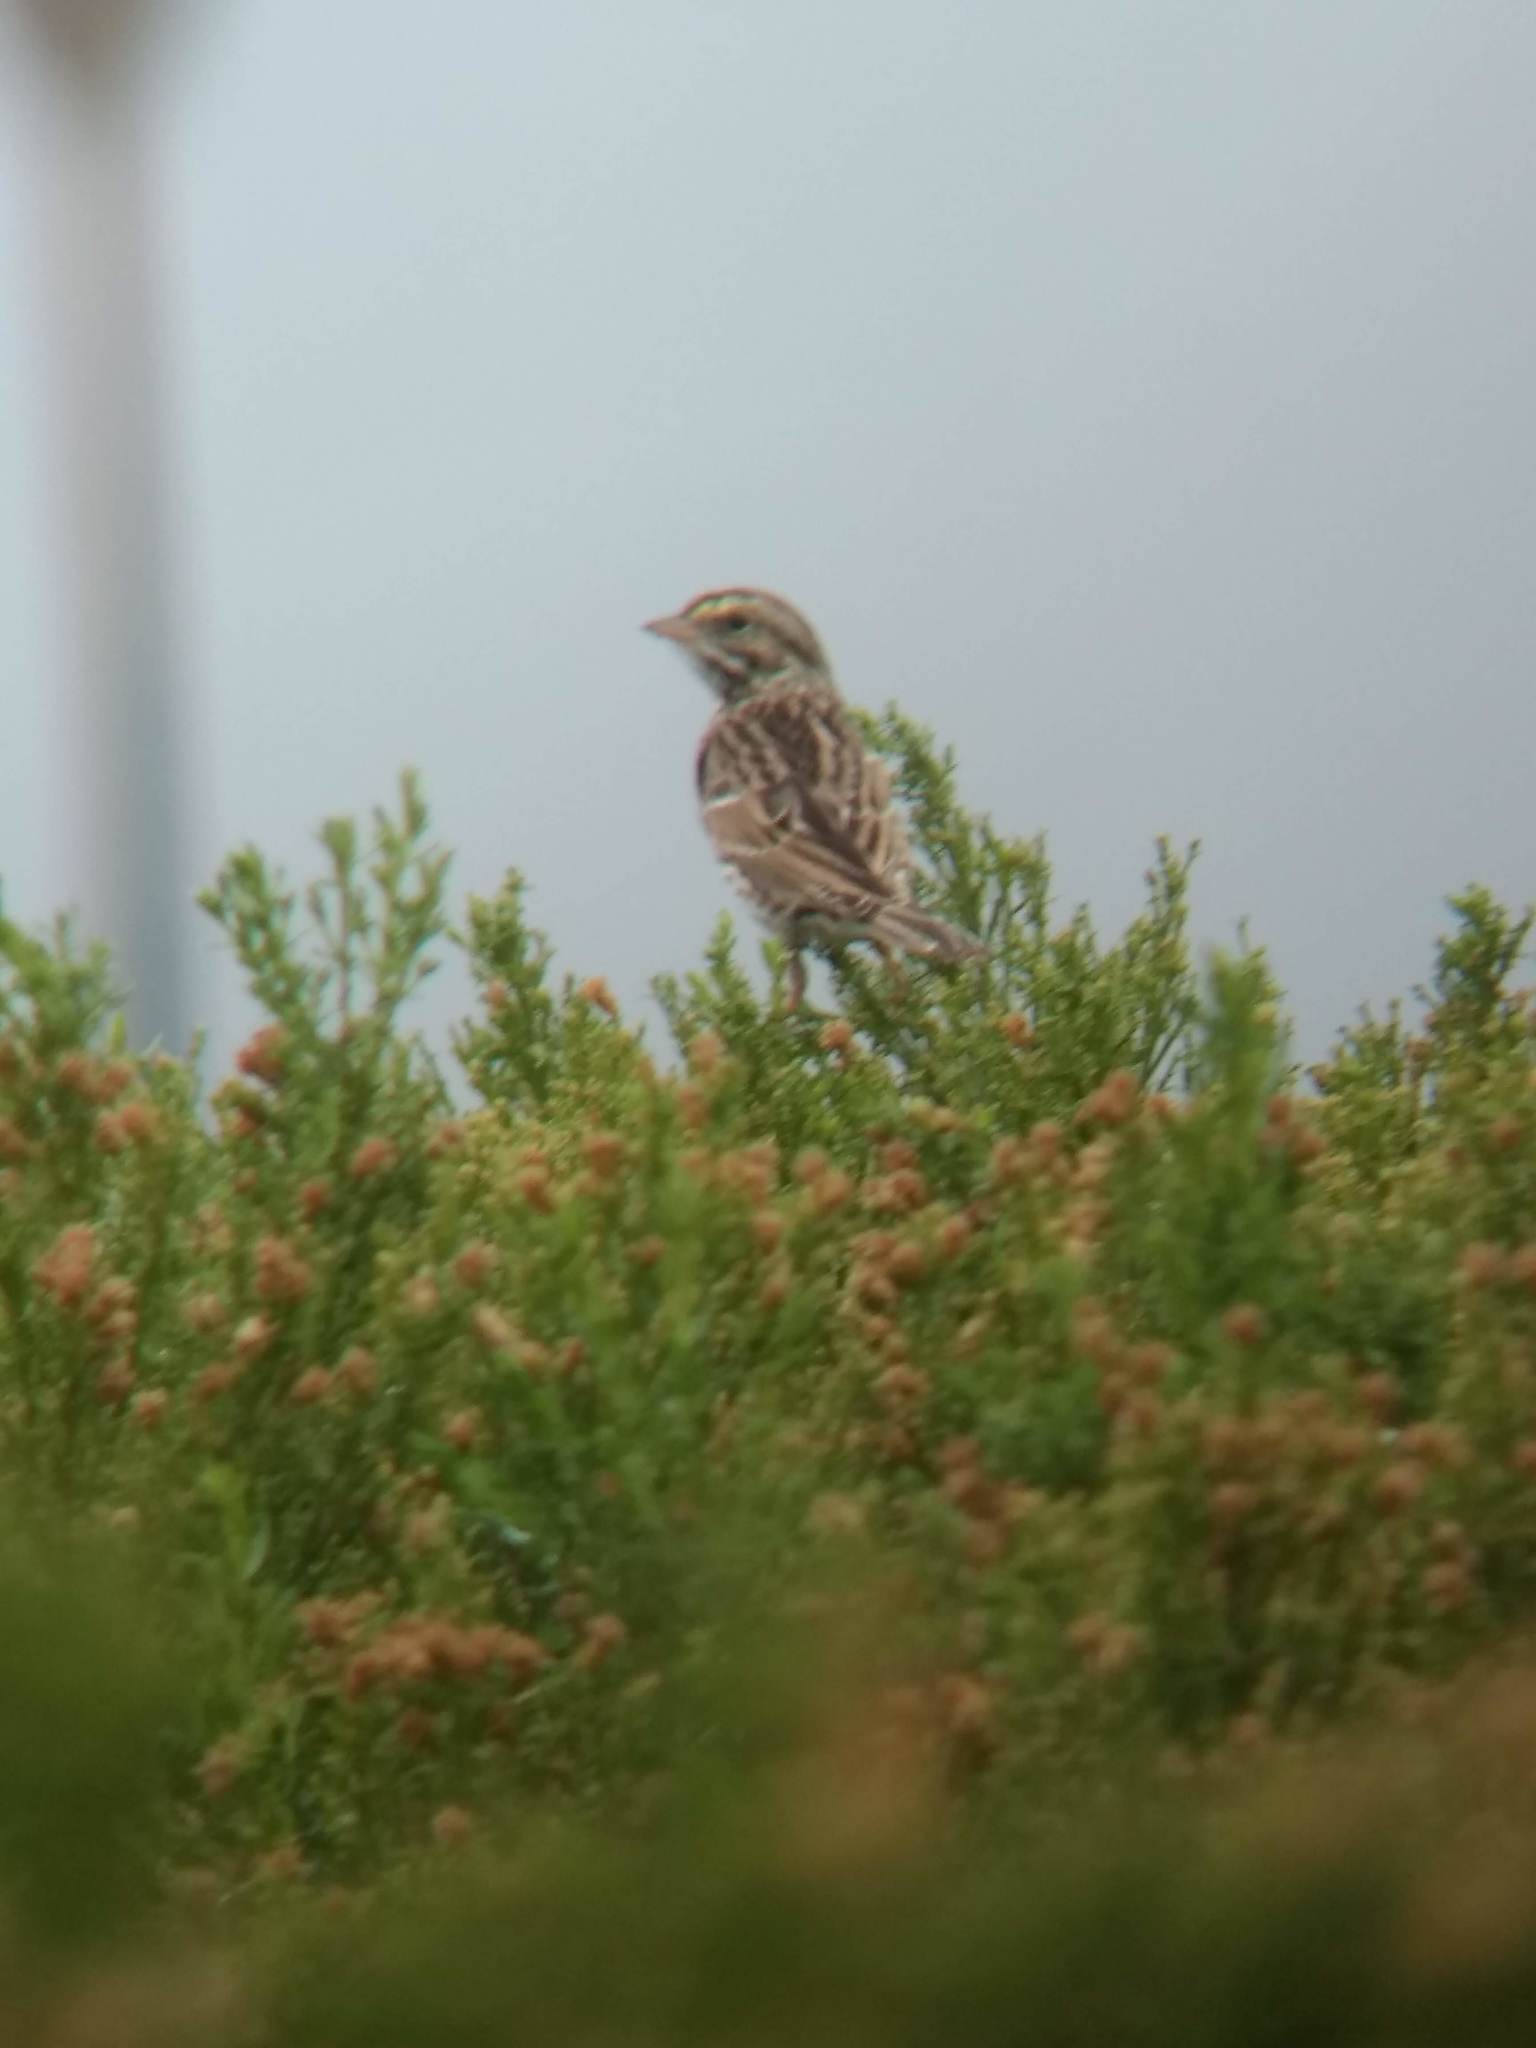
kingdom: Animalia
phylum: Chordata
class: Aves
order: Passeriformes
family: Passerellidae
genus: Passerculus
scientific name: Passerculus sandwichensis
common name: Savannah sparrow
